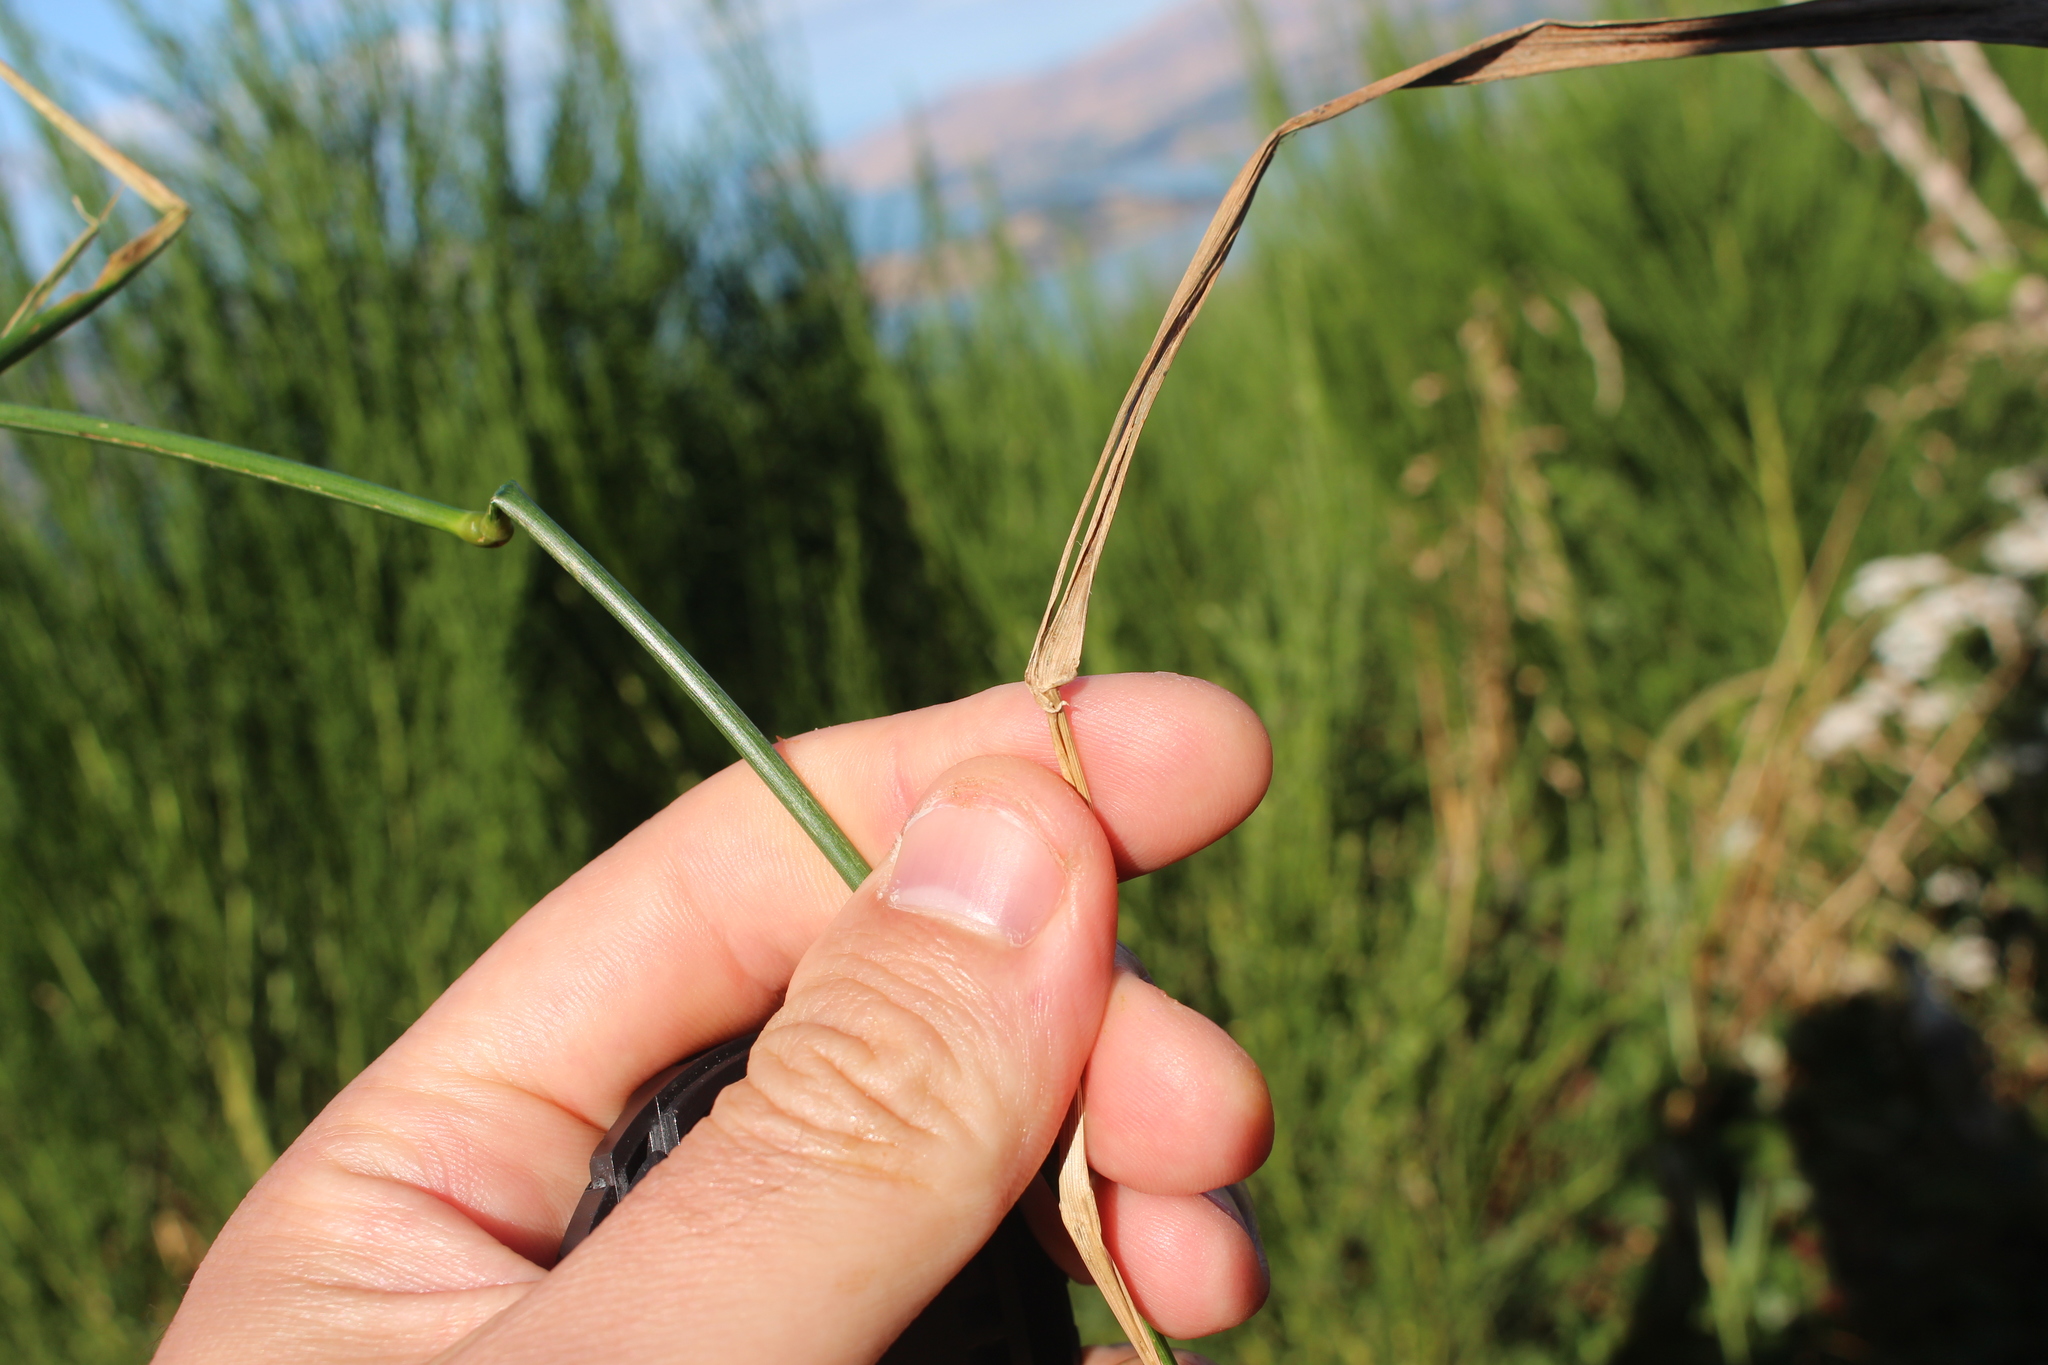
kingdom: Plantae
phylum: Tracheophyta
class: Liliopsida
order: Poales
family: Poaceae
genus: Elymus
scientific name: Elymus repens
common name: Quackgrass
